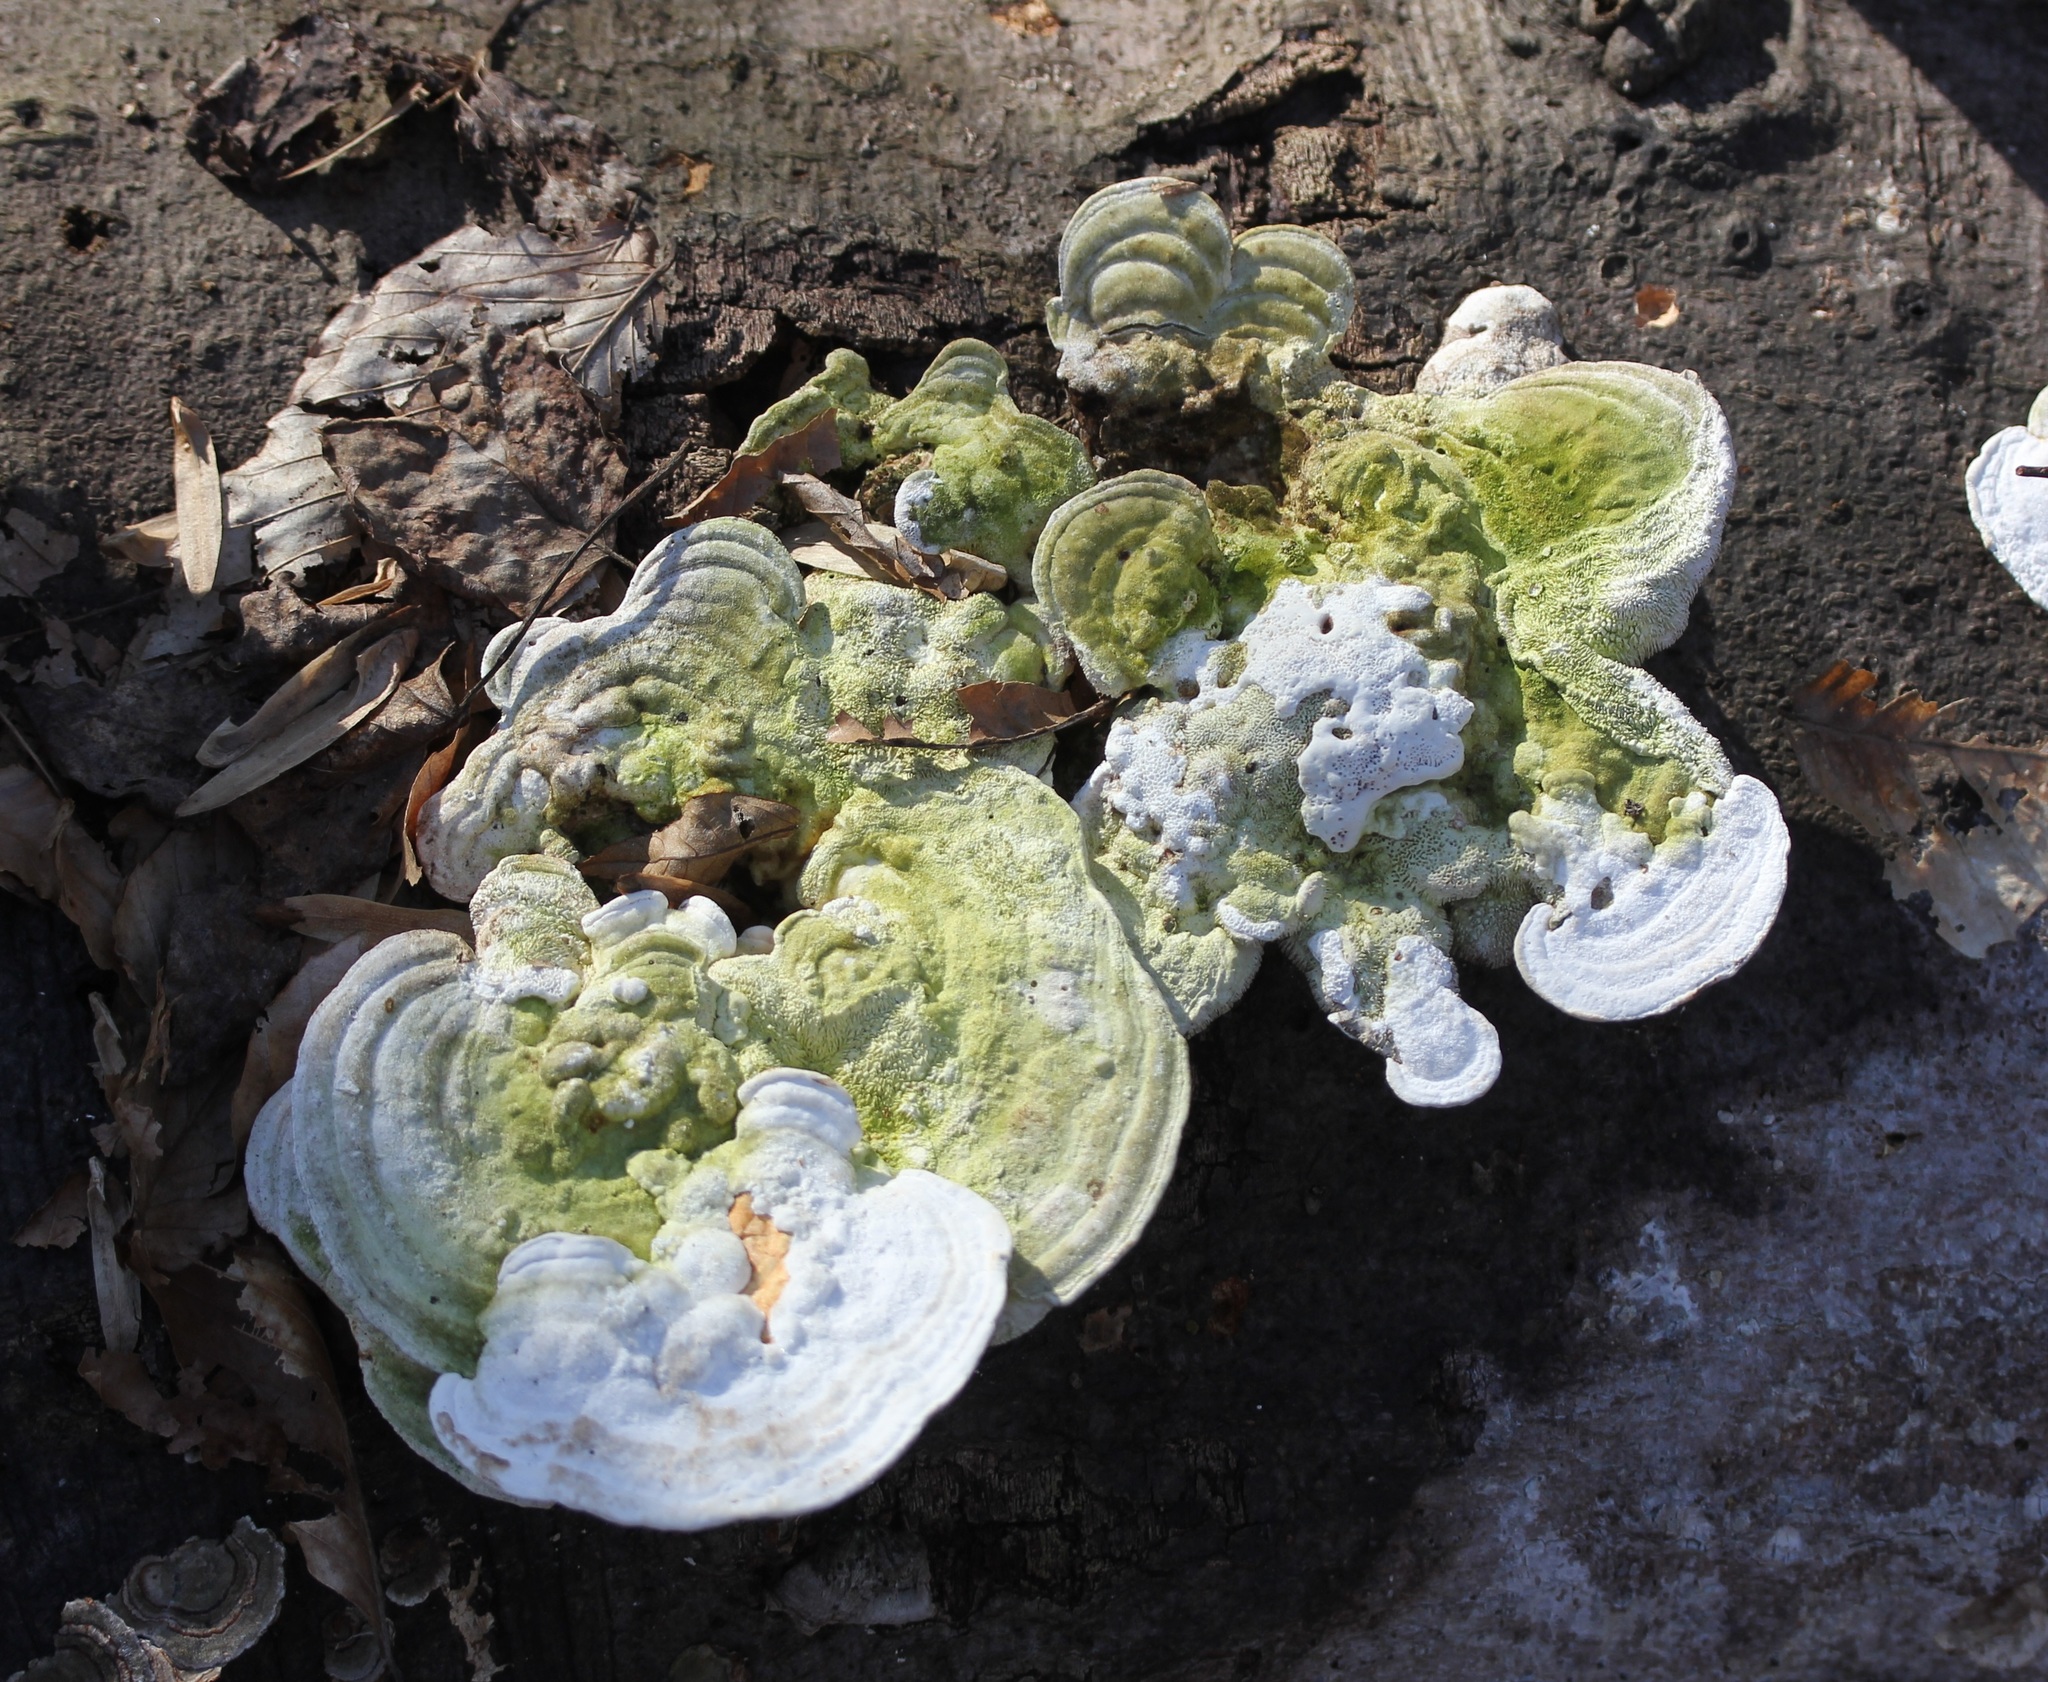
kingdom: Fungi
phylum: Basidiomycota
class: Agaricomycetes
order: Polyporales
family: Polyporaceae
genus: Trametes
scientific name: Trametes gibbosa
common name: Lumpy bracket
